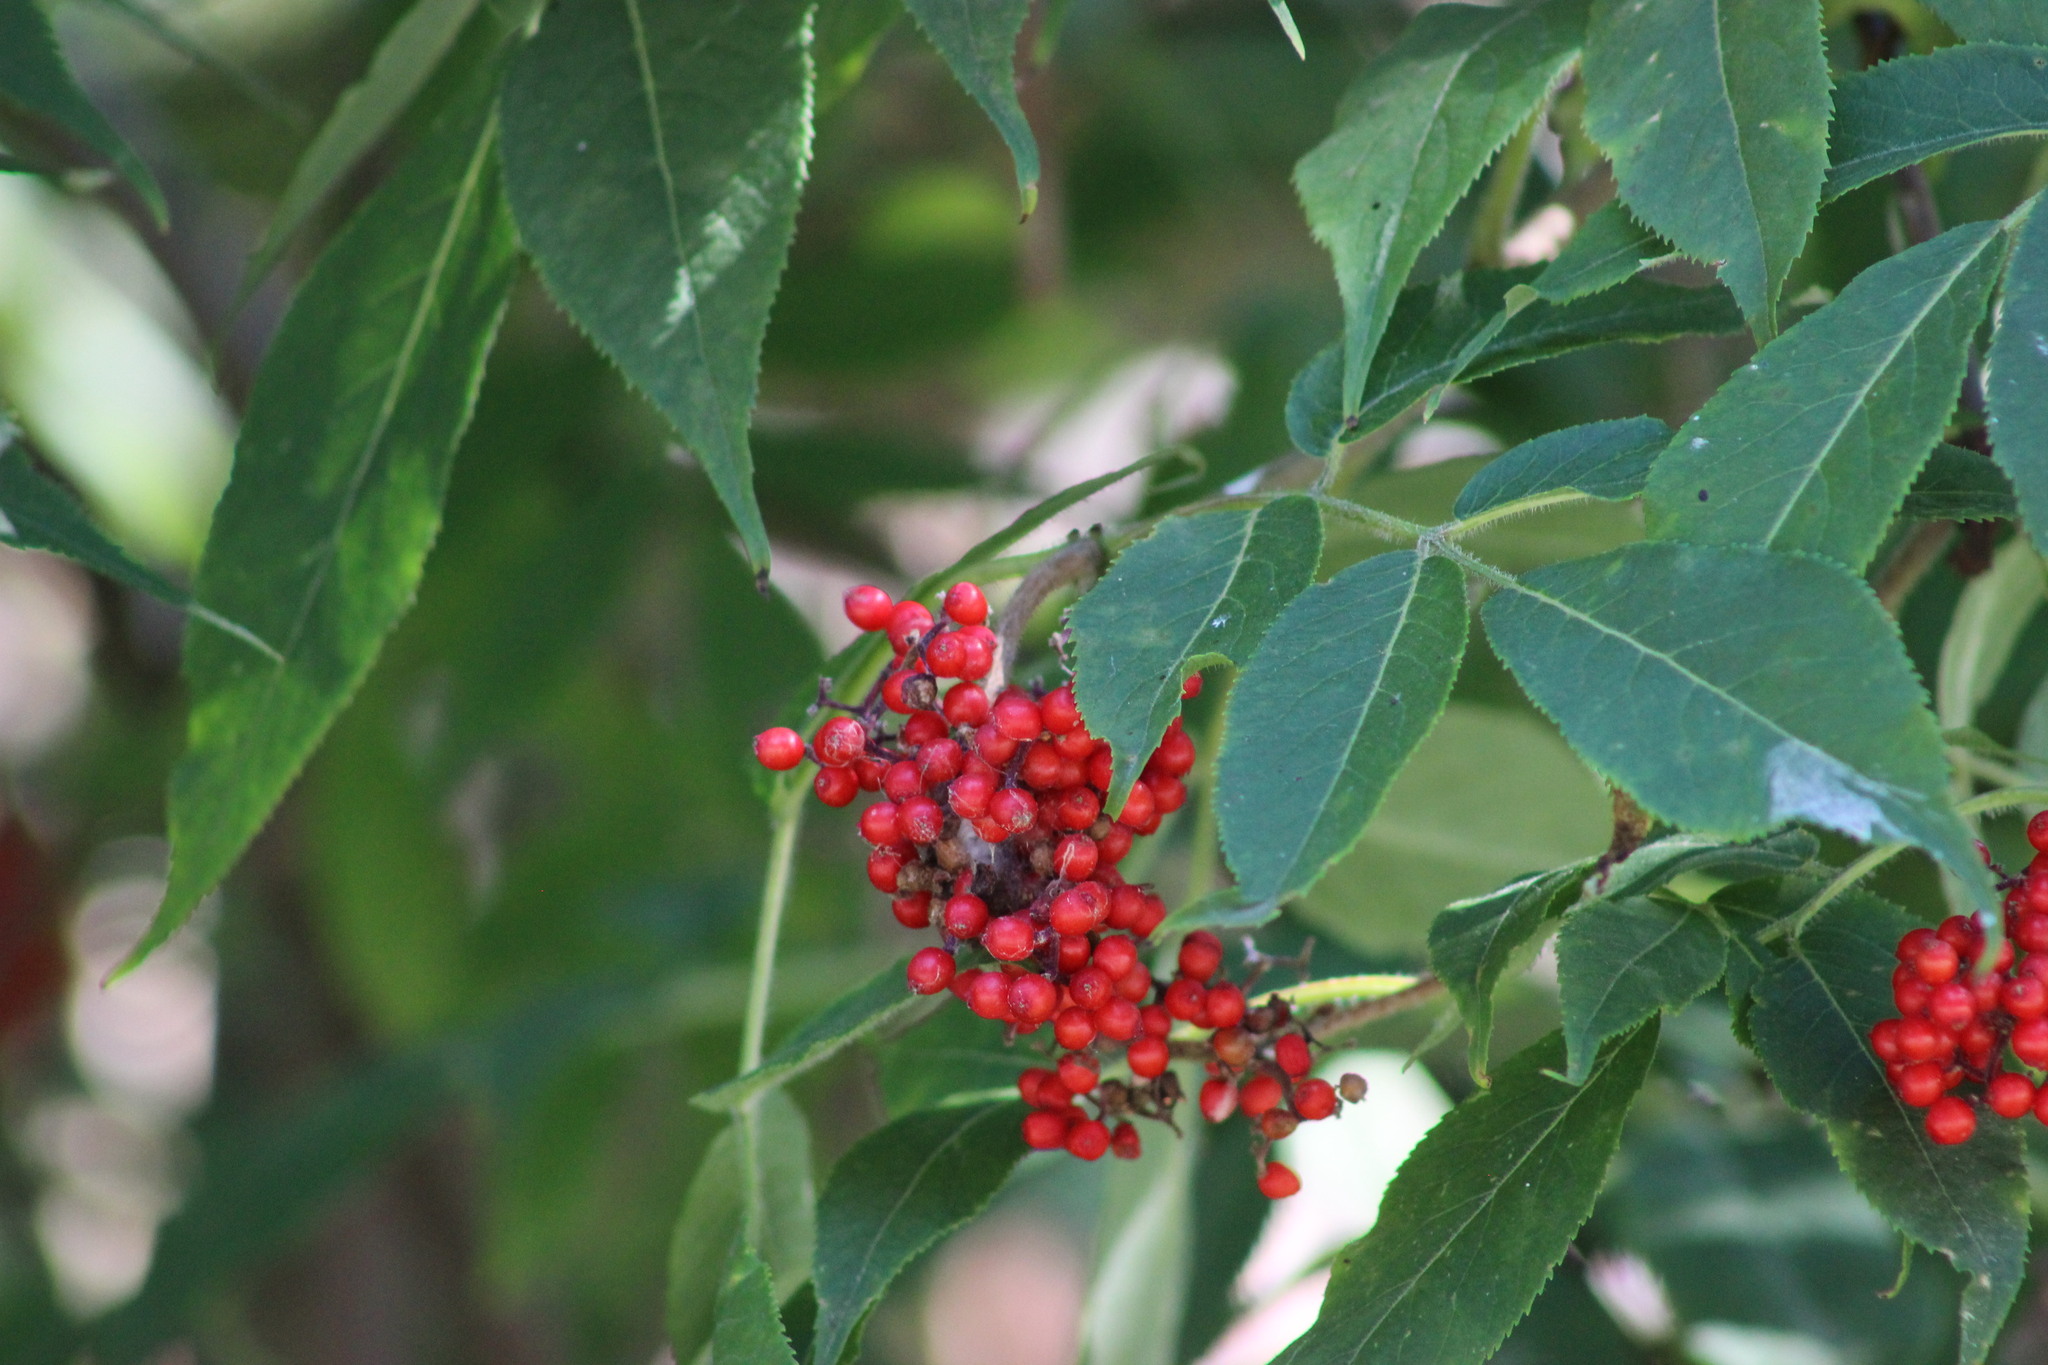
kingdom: Plantae
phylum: Tracheophyta
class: Magnoliopsida
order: Dipsacales
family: Viburnaceae
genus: Sambucus
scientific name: Sambucus sibirica
